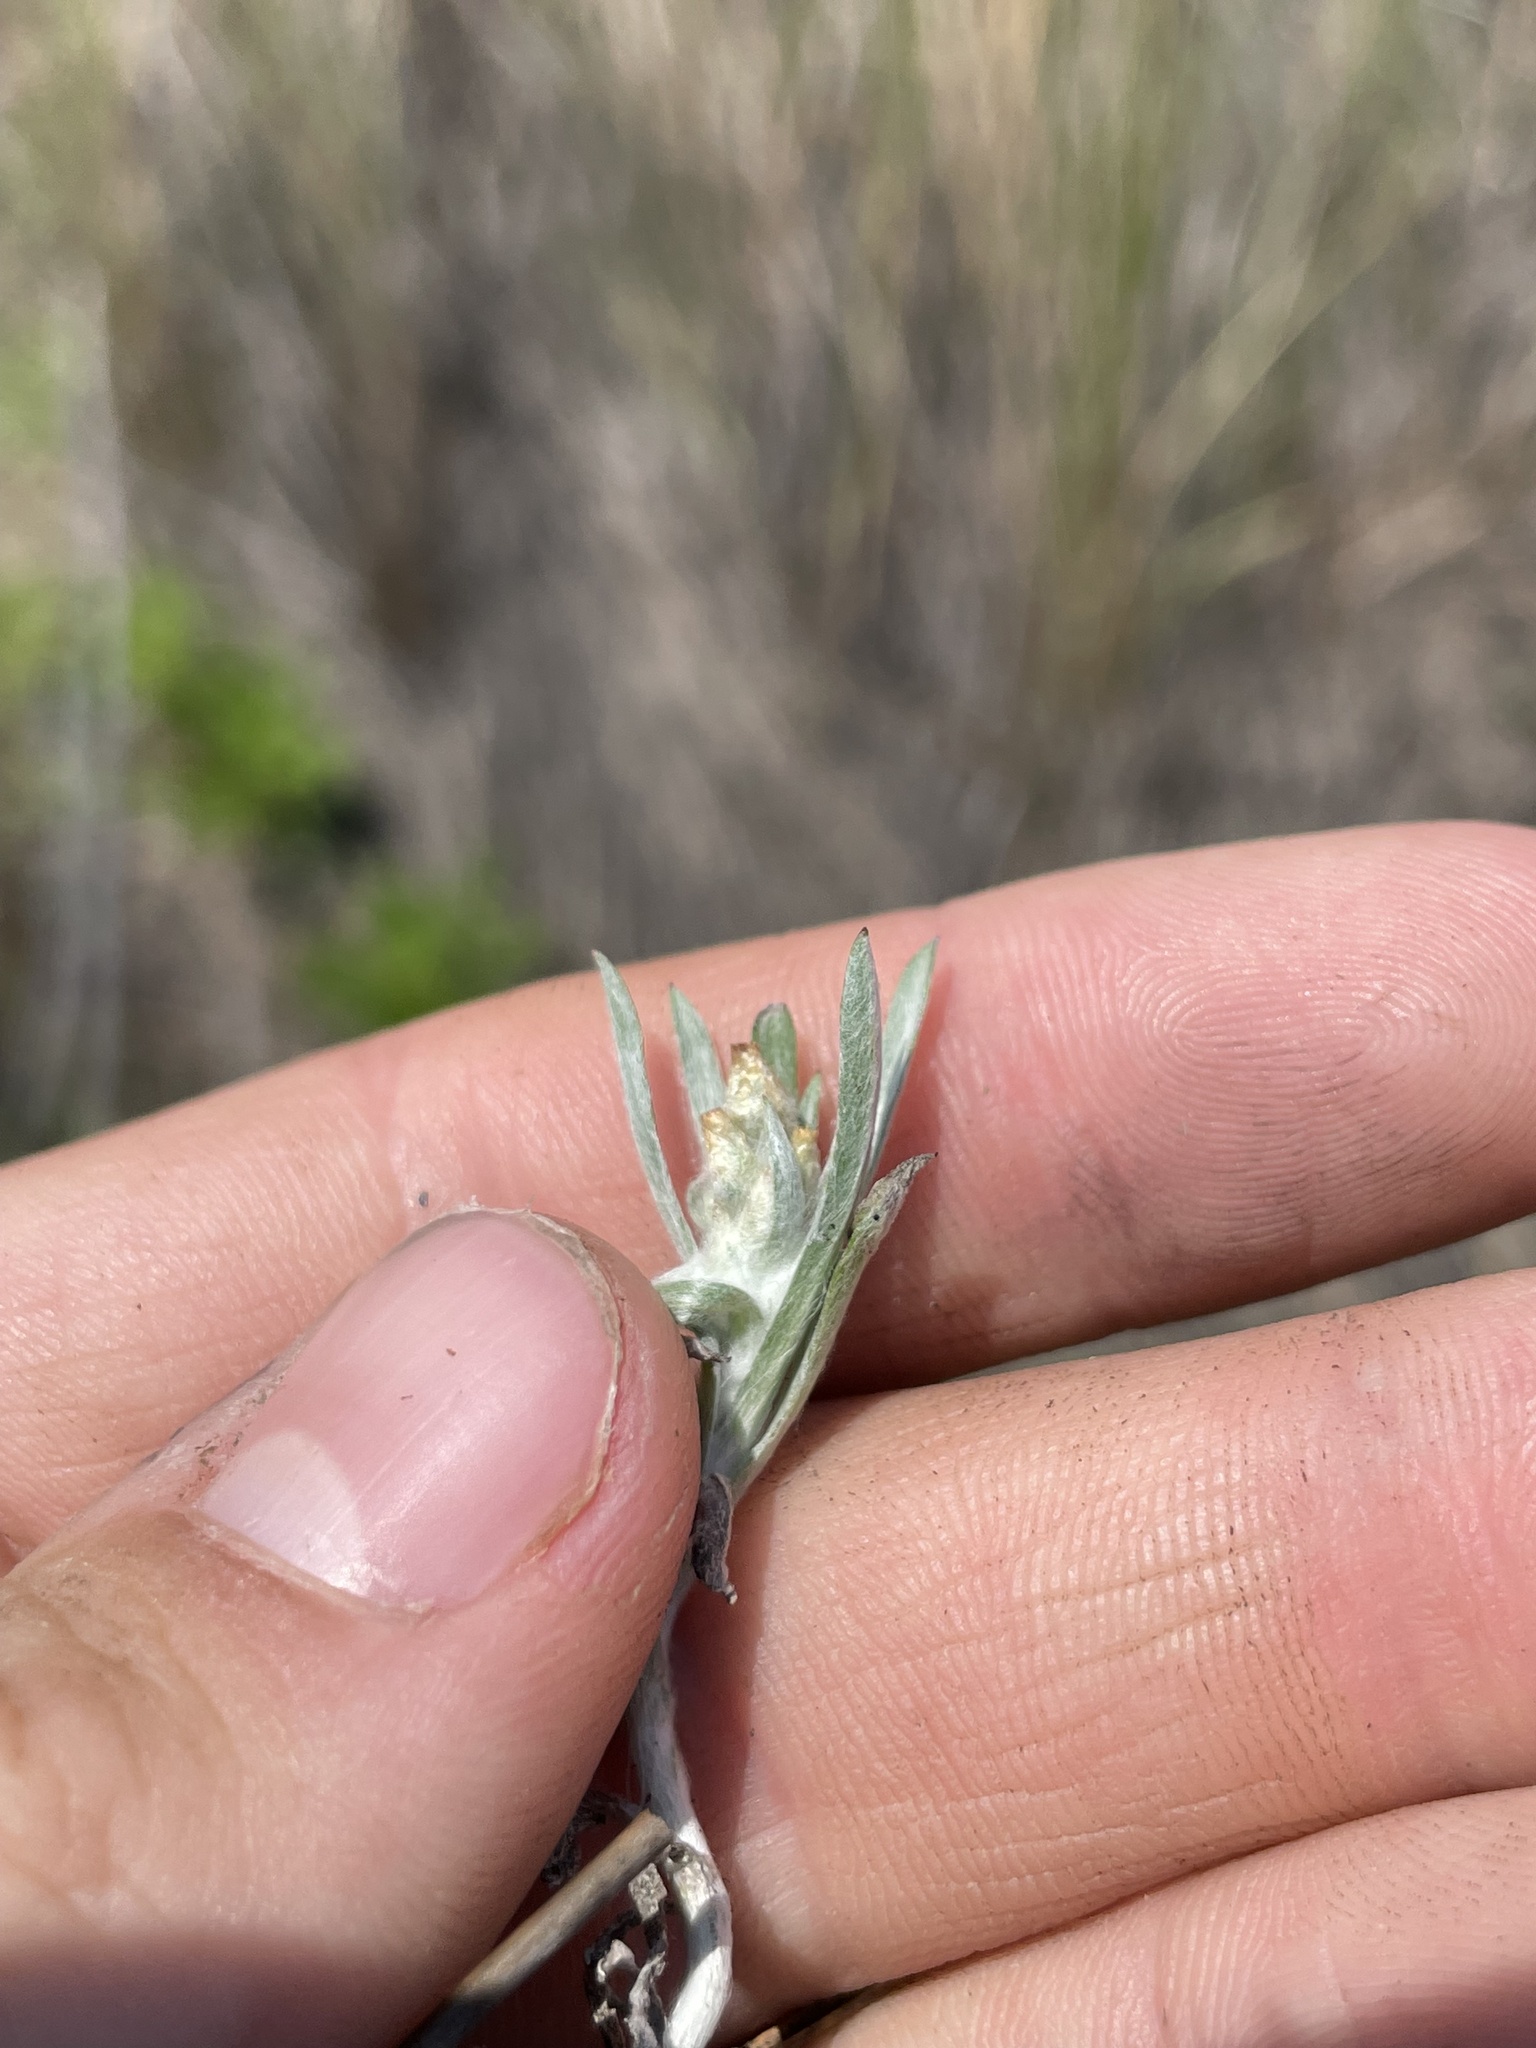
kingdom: Plantae
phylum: Tracheophyta
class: Magnoliopsida
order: Asterales
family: Asteraceae
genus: Gamochaeta
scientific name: Gamochaeta antillana
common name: Delicate everlasting
